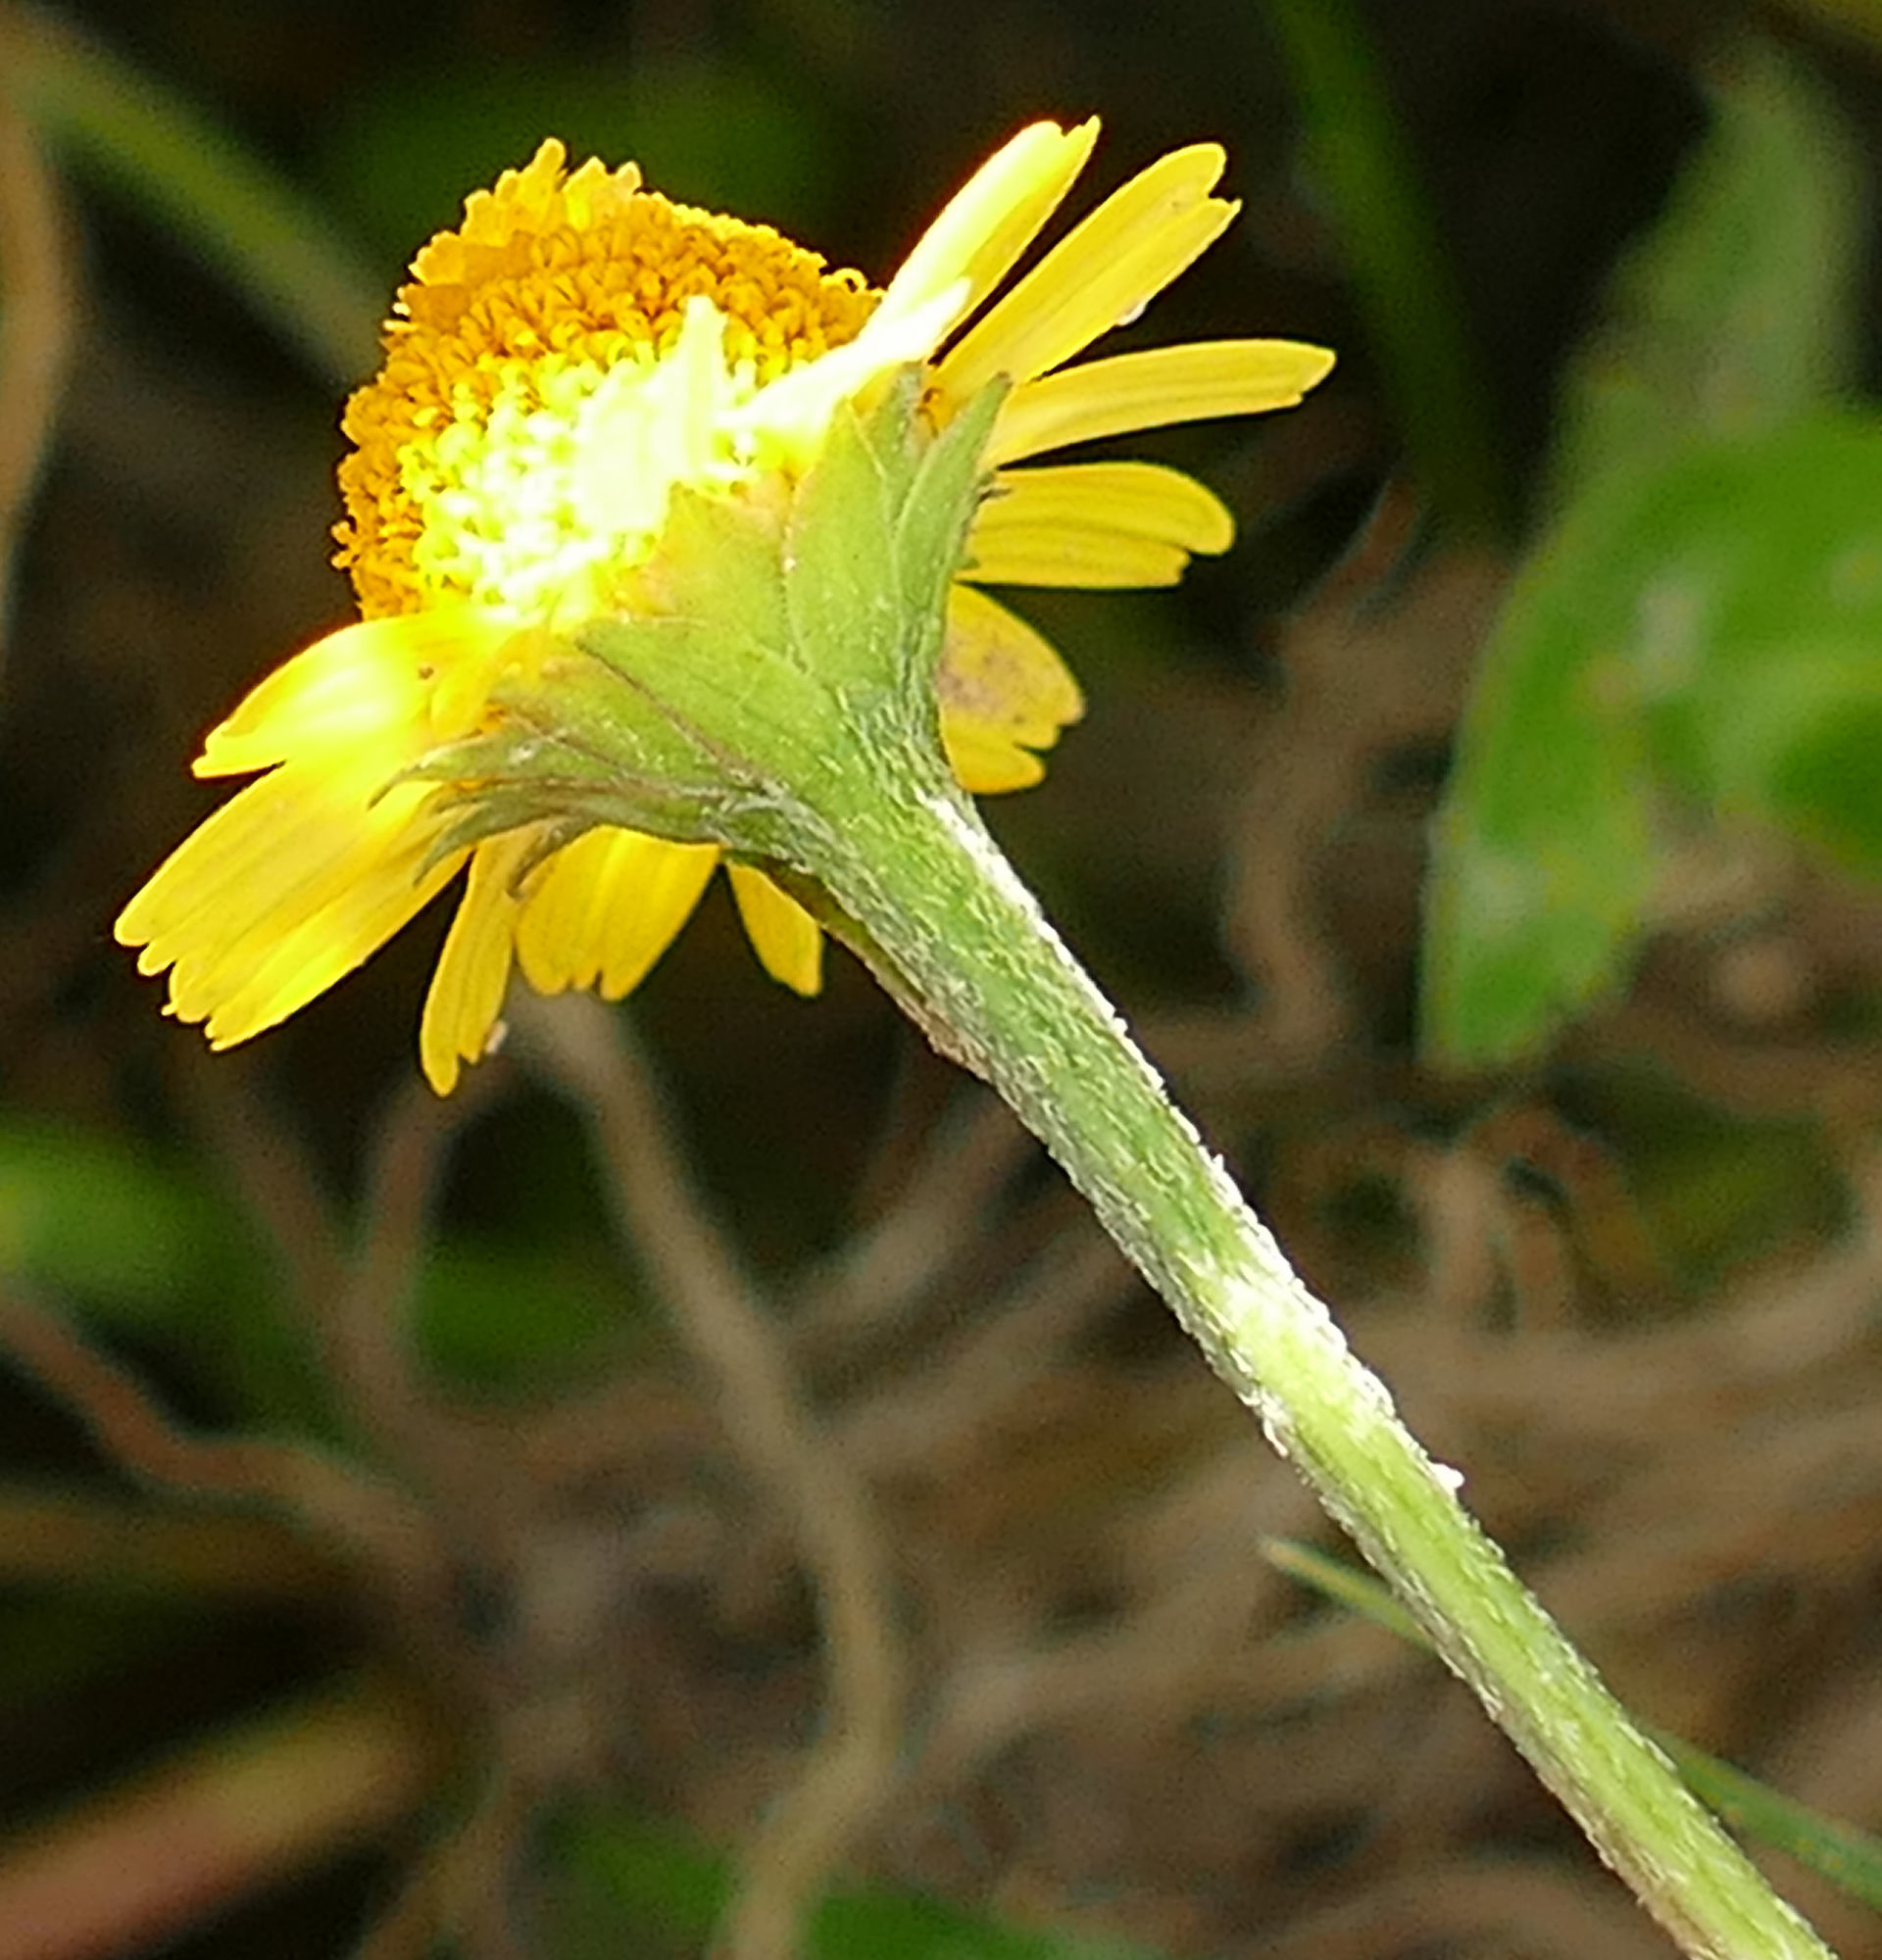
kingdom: Plantae
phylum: Tracheophyta
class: Magnoliopsida
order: Asterales
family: Asteraceae
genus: Acmella
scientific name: Acmella repens
